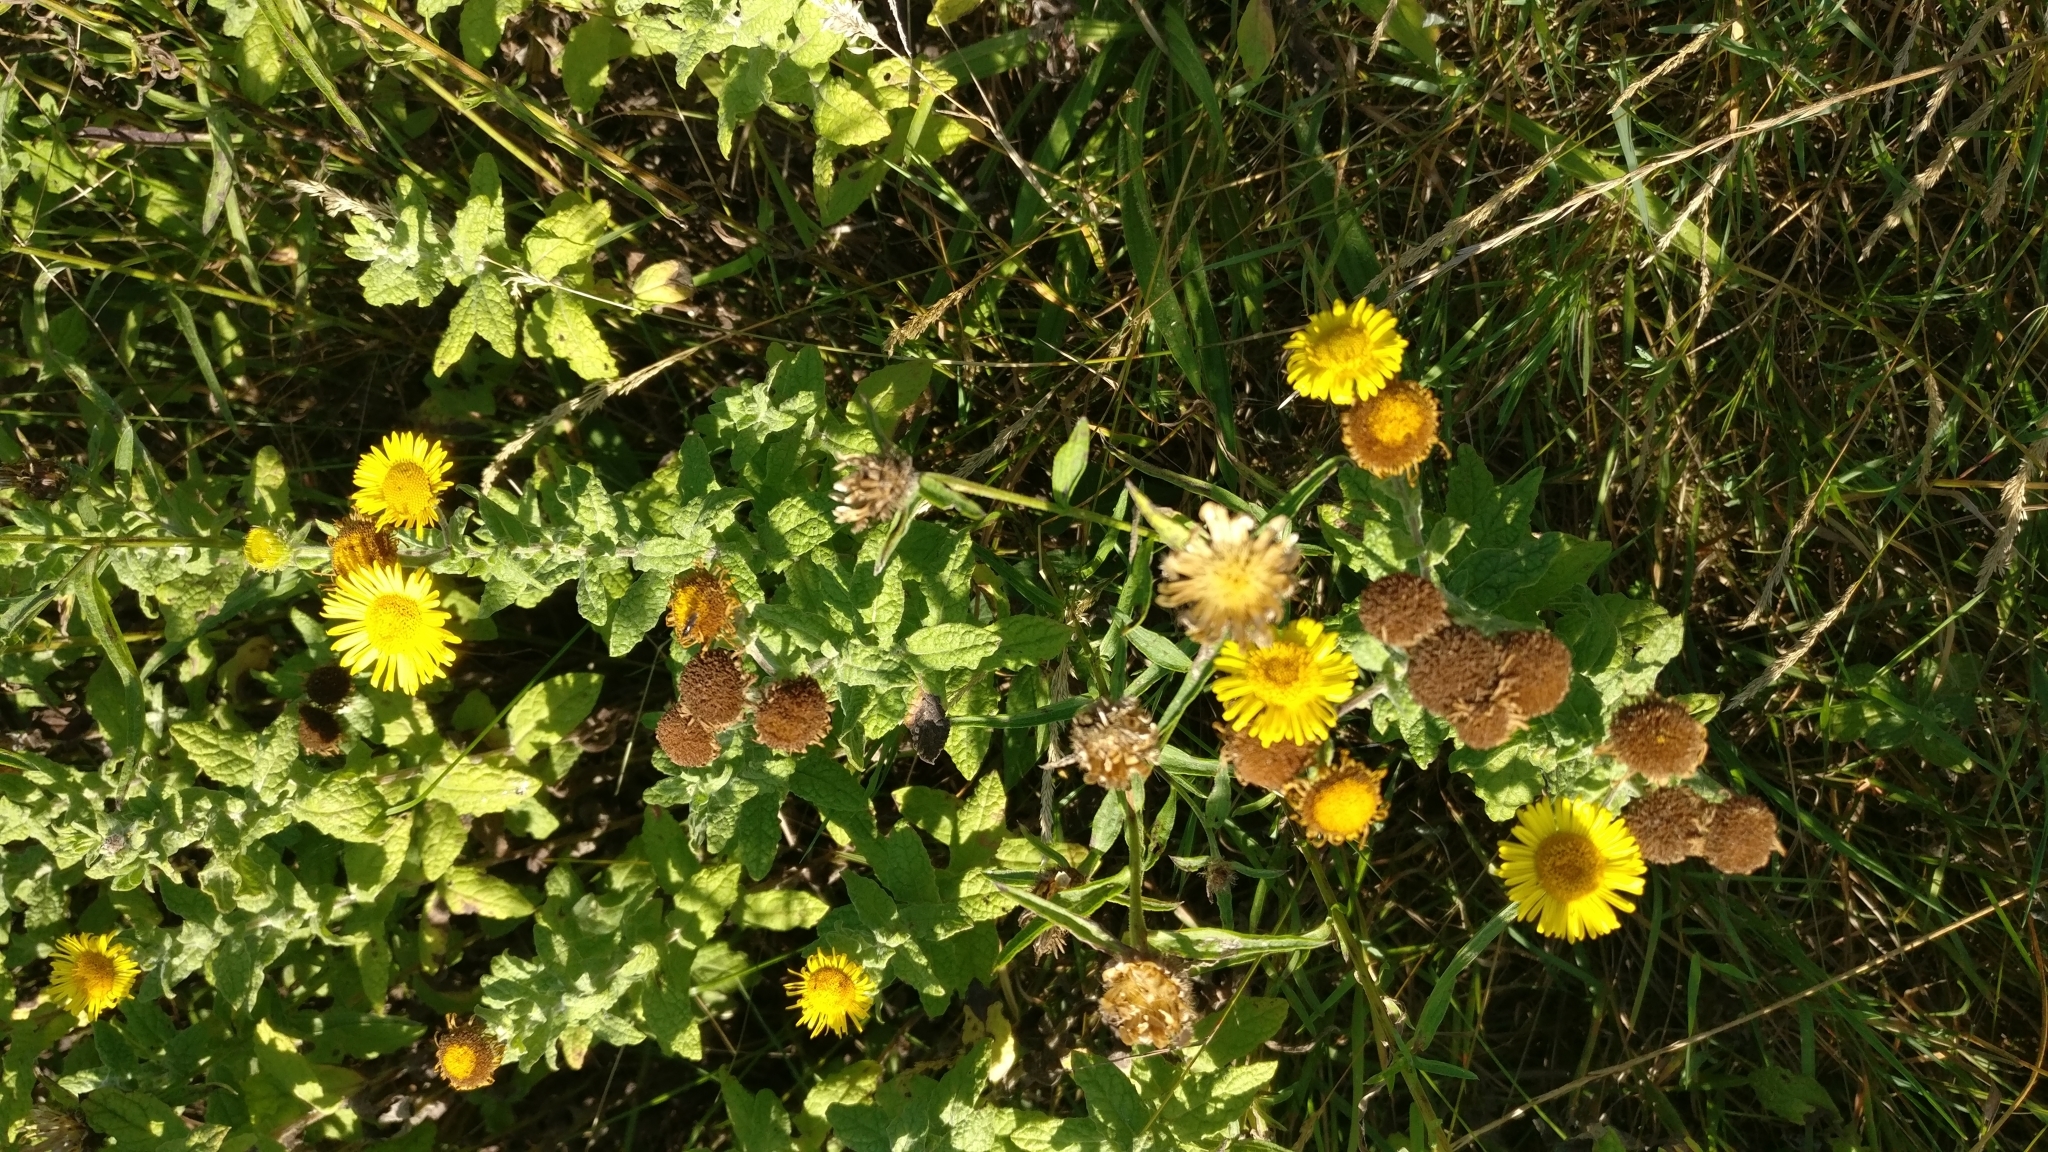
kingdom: Plantae
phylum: Tracheophyta
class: Magnoliopsida
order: Asterales
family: Asteraceae
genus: Pulicaria
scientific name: Pulicaria dysenterica
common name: Common fleabane
